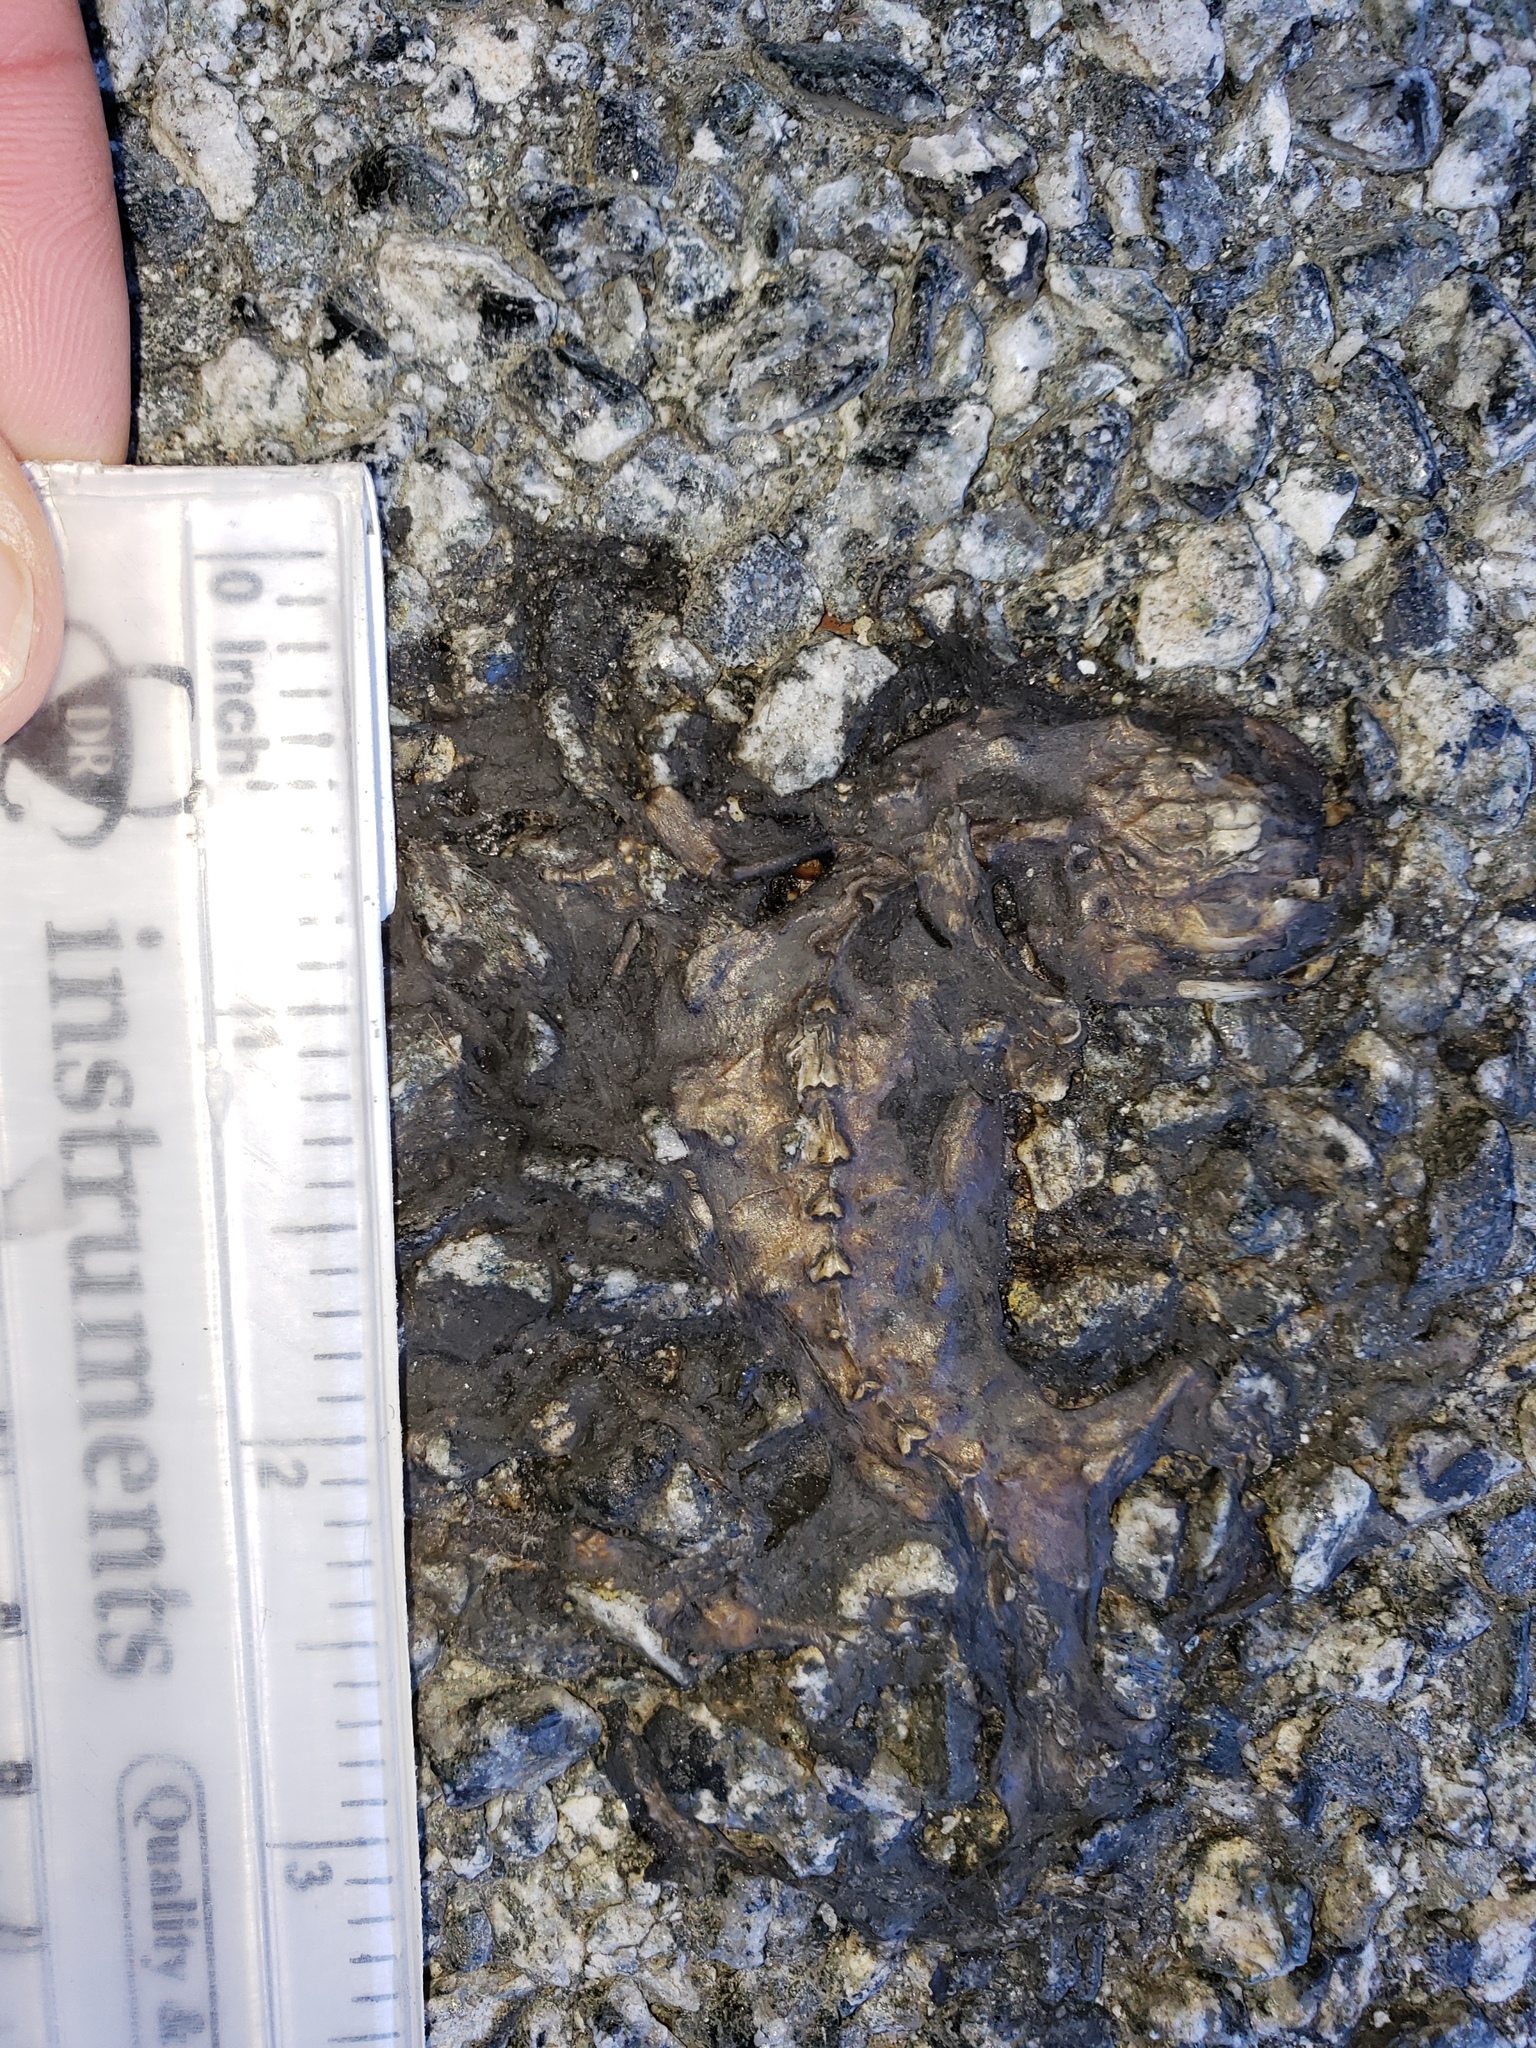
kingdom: Animalia
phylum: Chordata
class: Amphibia
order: Caudata
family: Salamandridae
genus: Taricha
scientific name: Taricha
